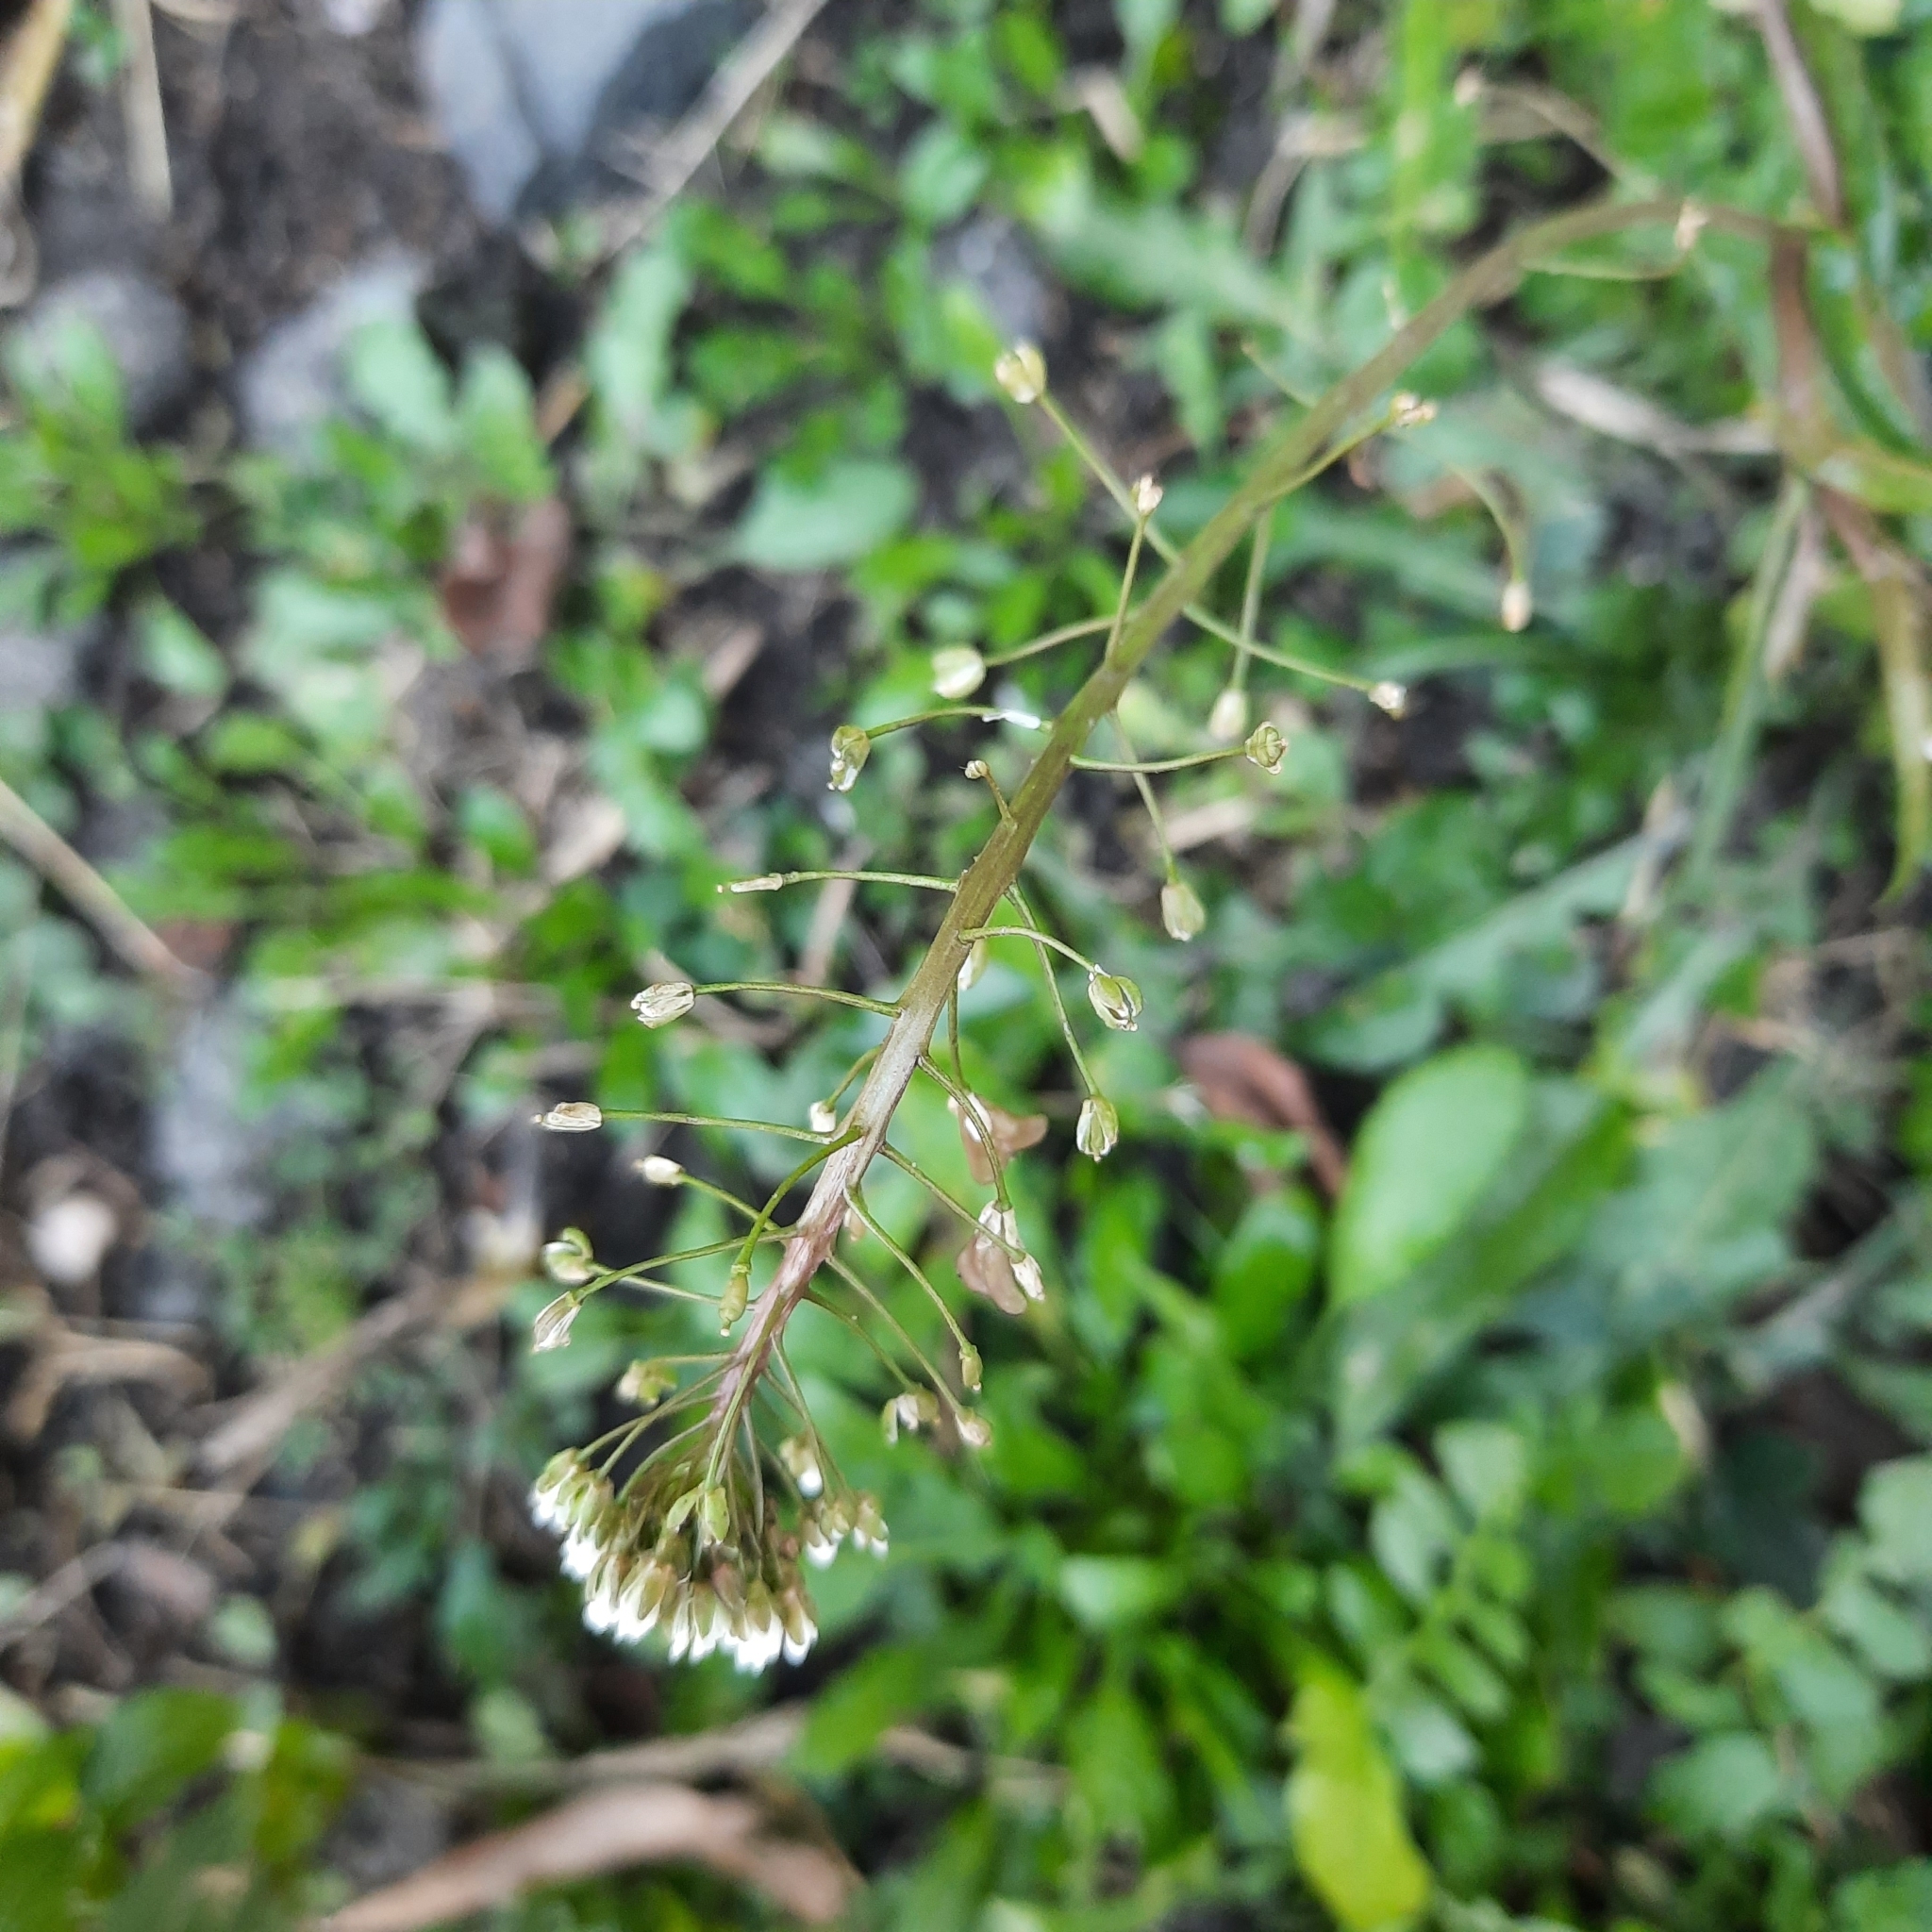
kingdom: Plantae
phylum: Tracheophyta
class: Magnoliopsida
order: Brassicales
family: Brassicaceae
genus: Capsella
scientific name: Capsella bursa-pastoris
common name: Shepherd's purse
